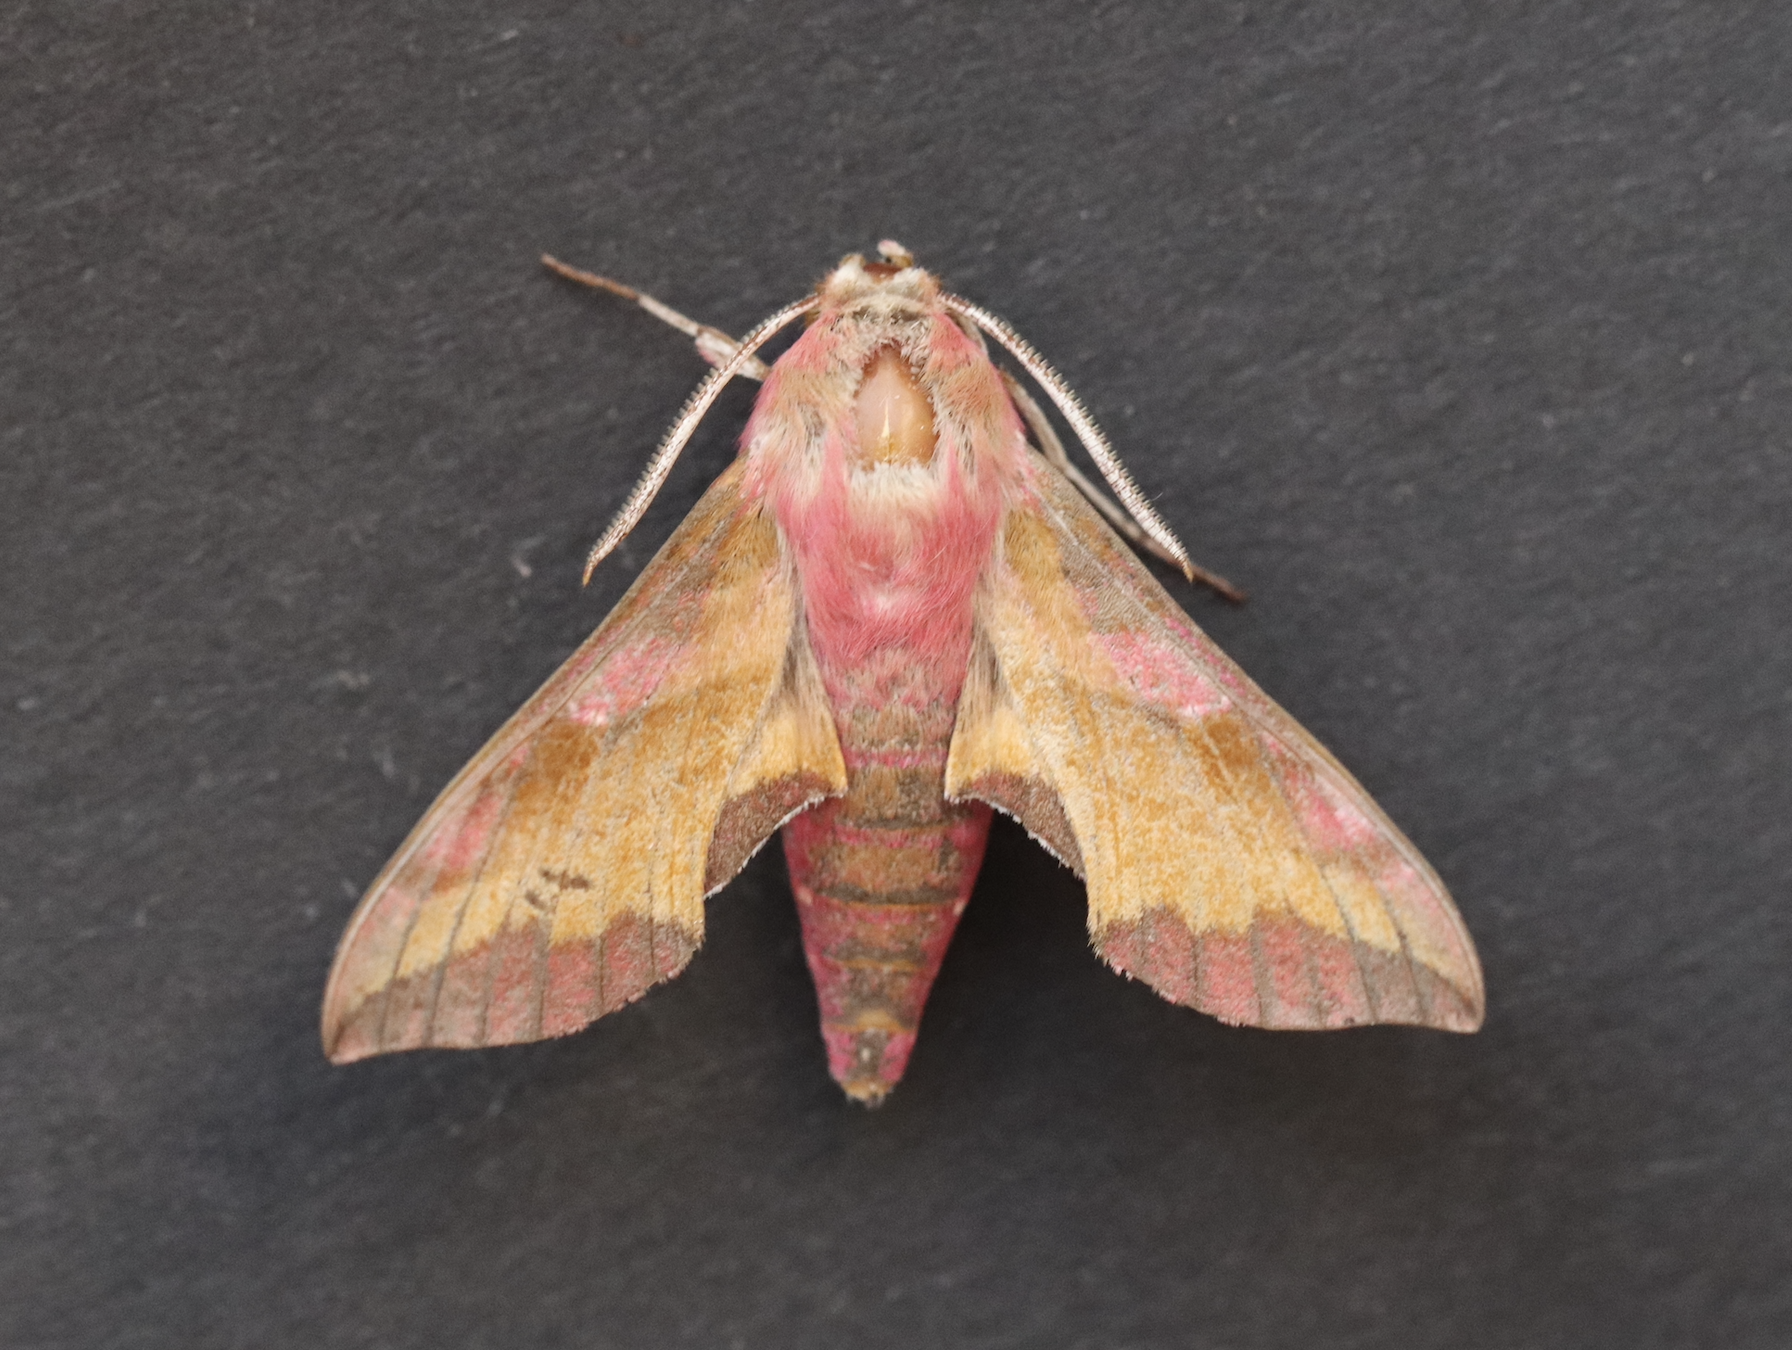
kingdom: Animalia
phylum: Arthropoda
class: Insecta
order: Lepidoptera
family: Sphingidae
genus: Deilephila
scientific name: Deilephila porcellus
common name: Small elephant hawk-moth
